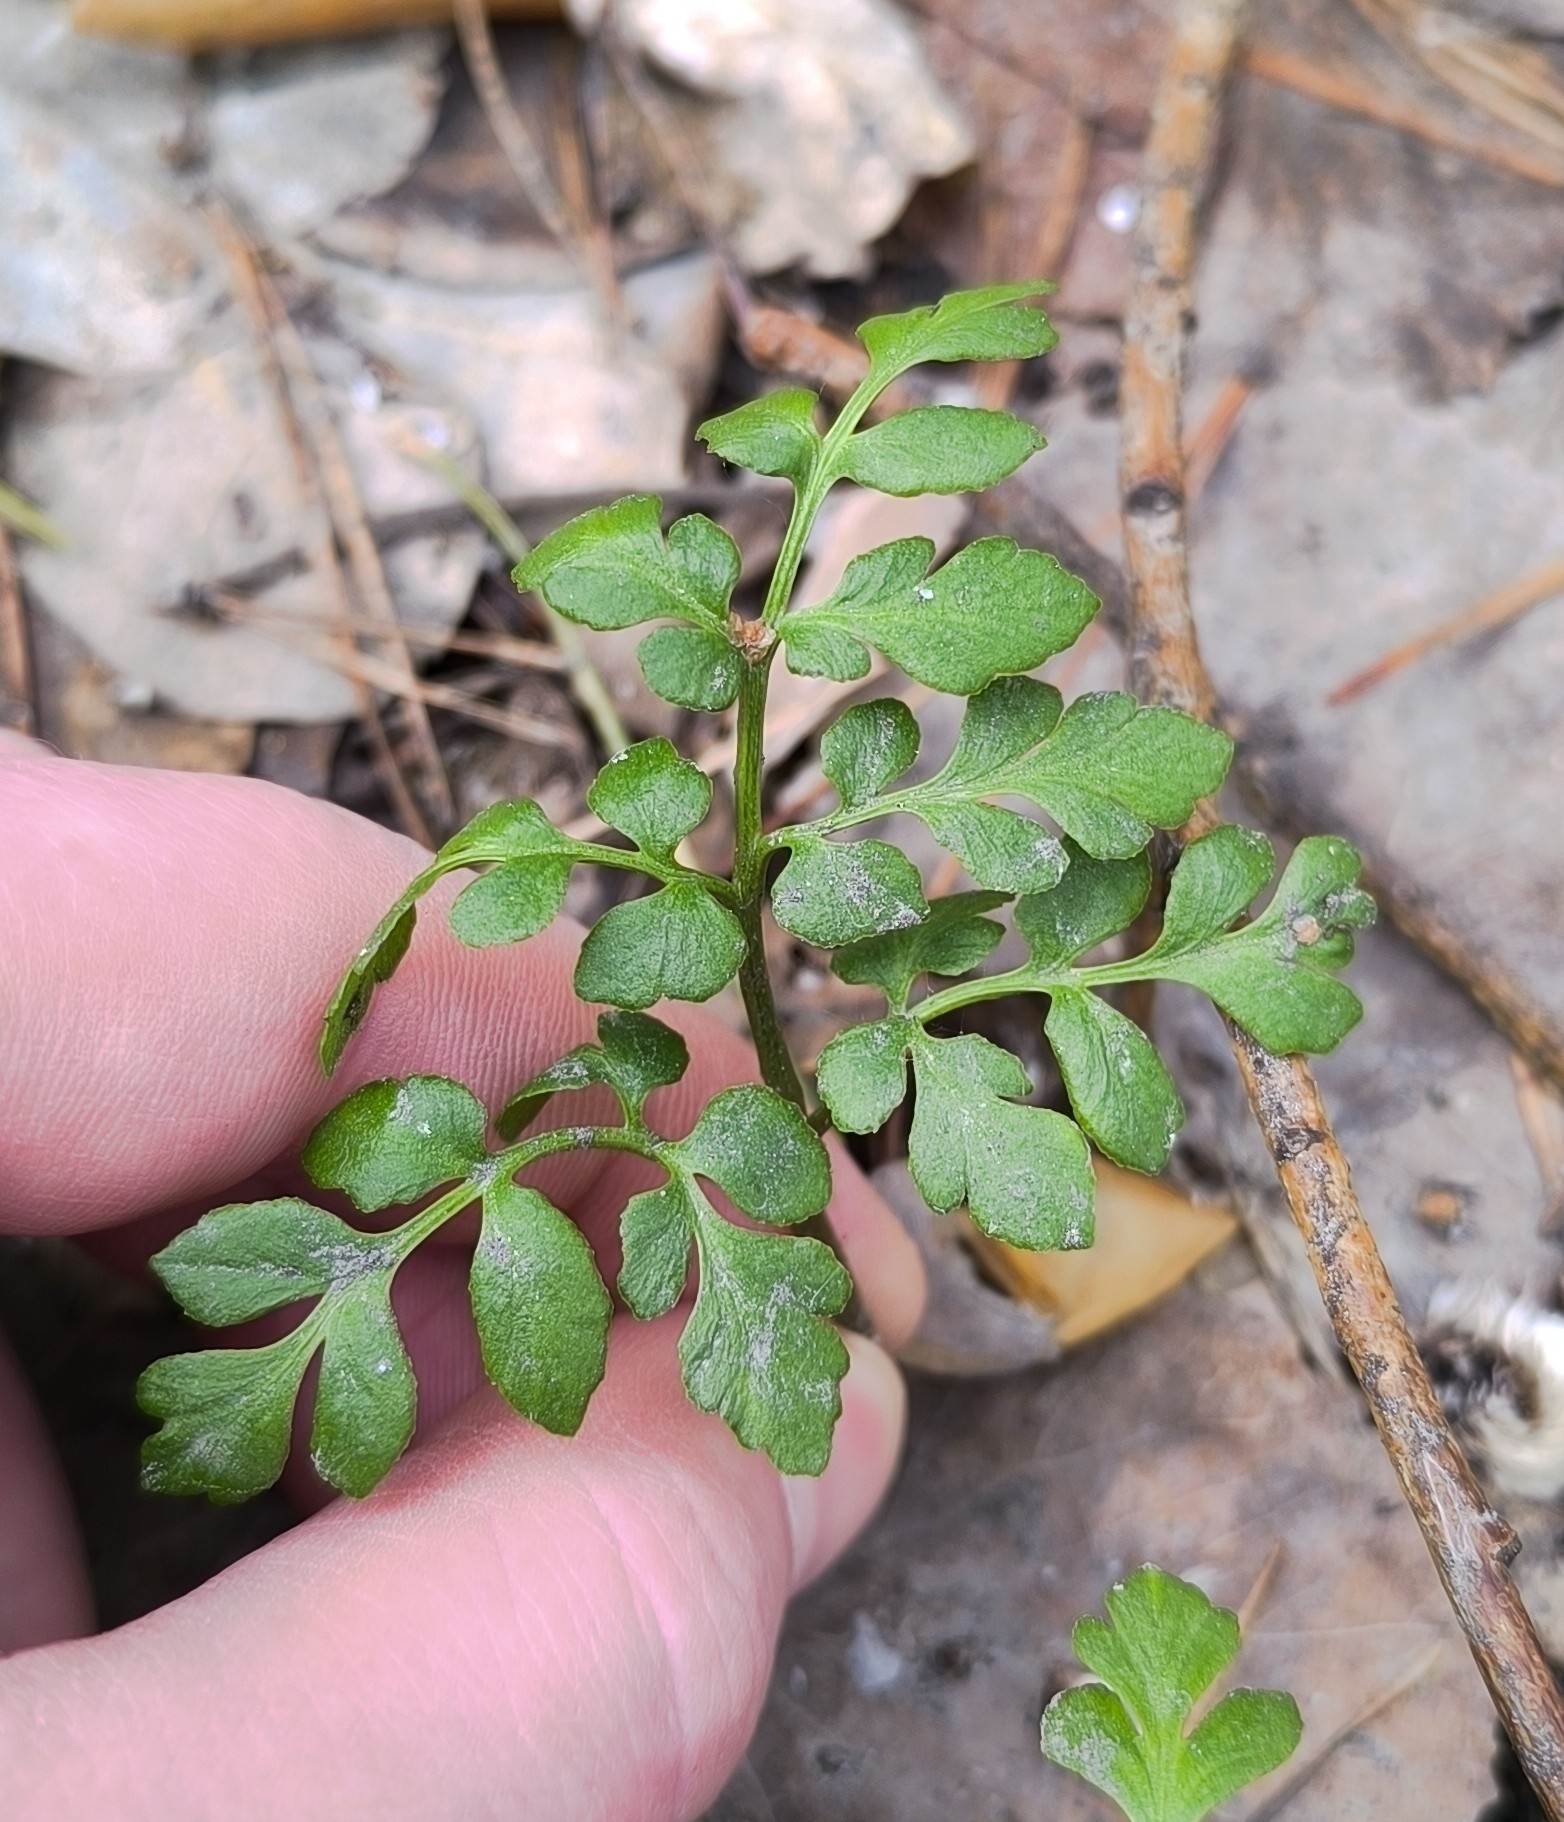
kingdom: Plantae
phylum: Tracheophyta
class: Polypodiopsida
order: Ophioglossales
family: Ophioglossaceae
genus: Sceptridium
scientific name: Sceptridium multifidum
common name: Leathery grape fern
